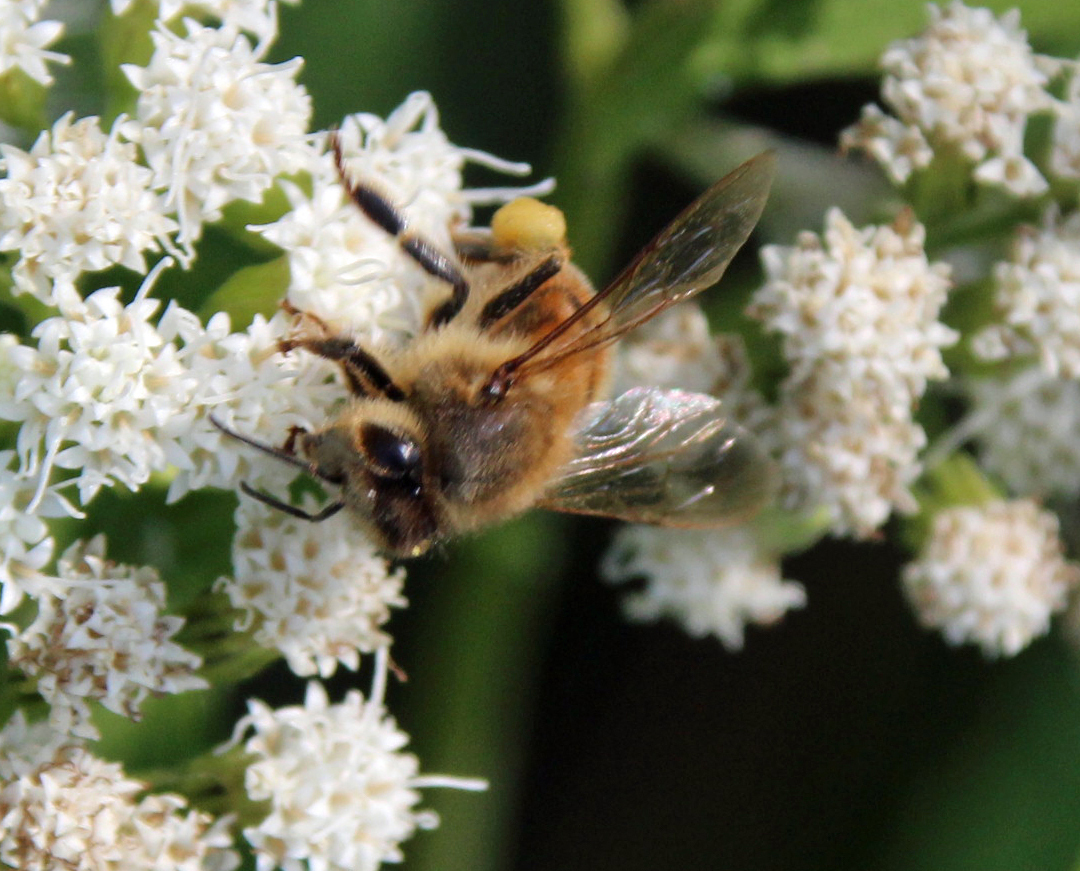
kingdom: Animalia
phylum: Arthropoda
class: Insecta
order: Hymenoptera
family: Apidae
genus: Apis
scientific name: Apis mellifera
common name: Honey bee
